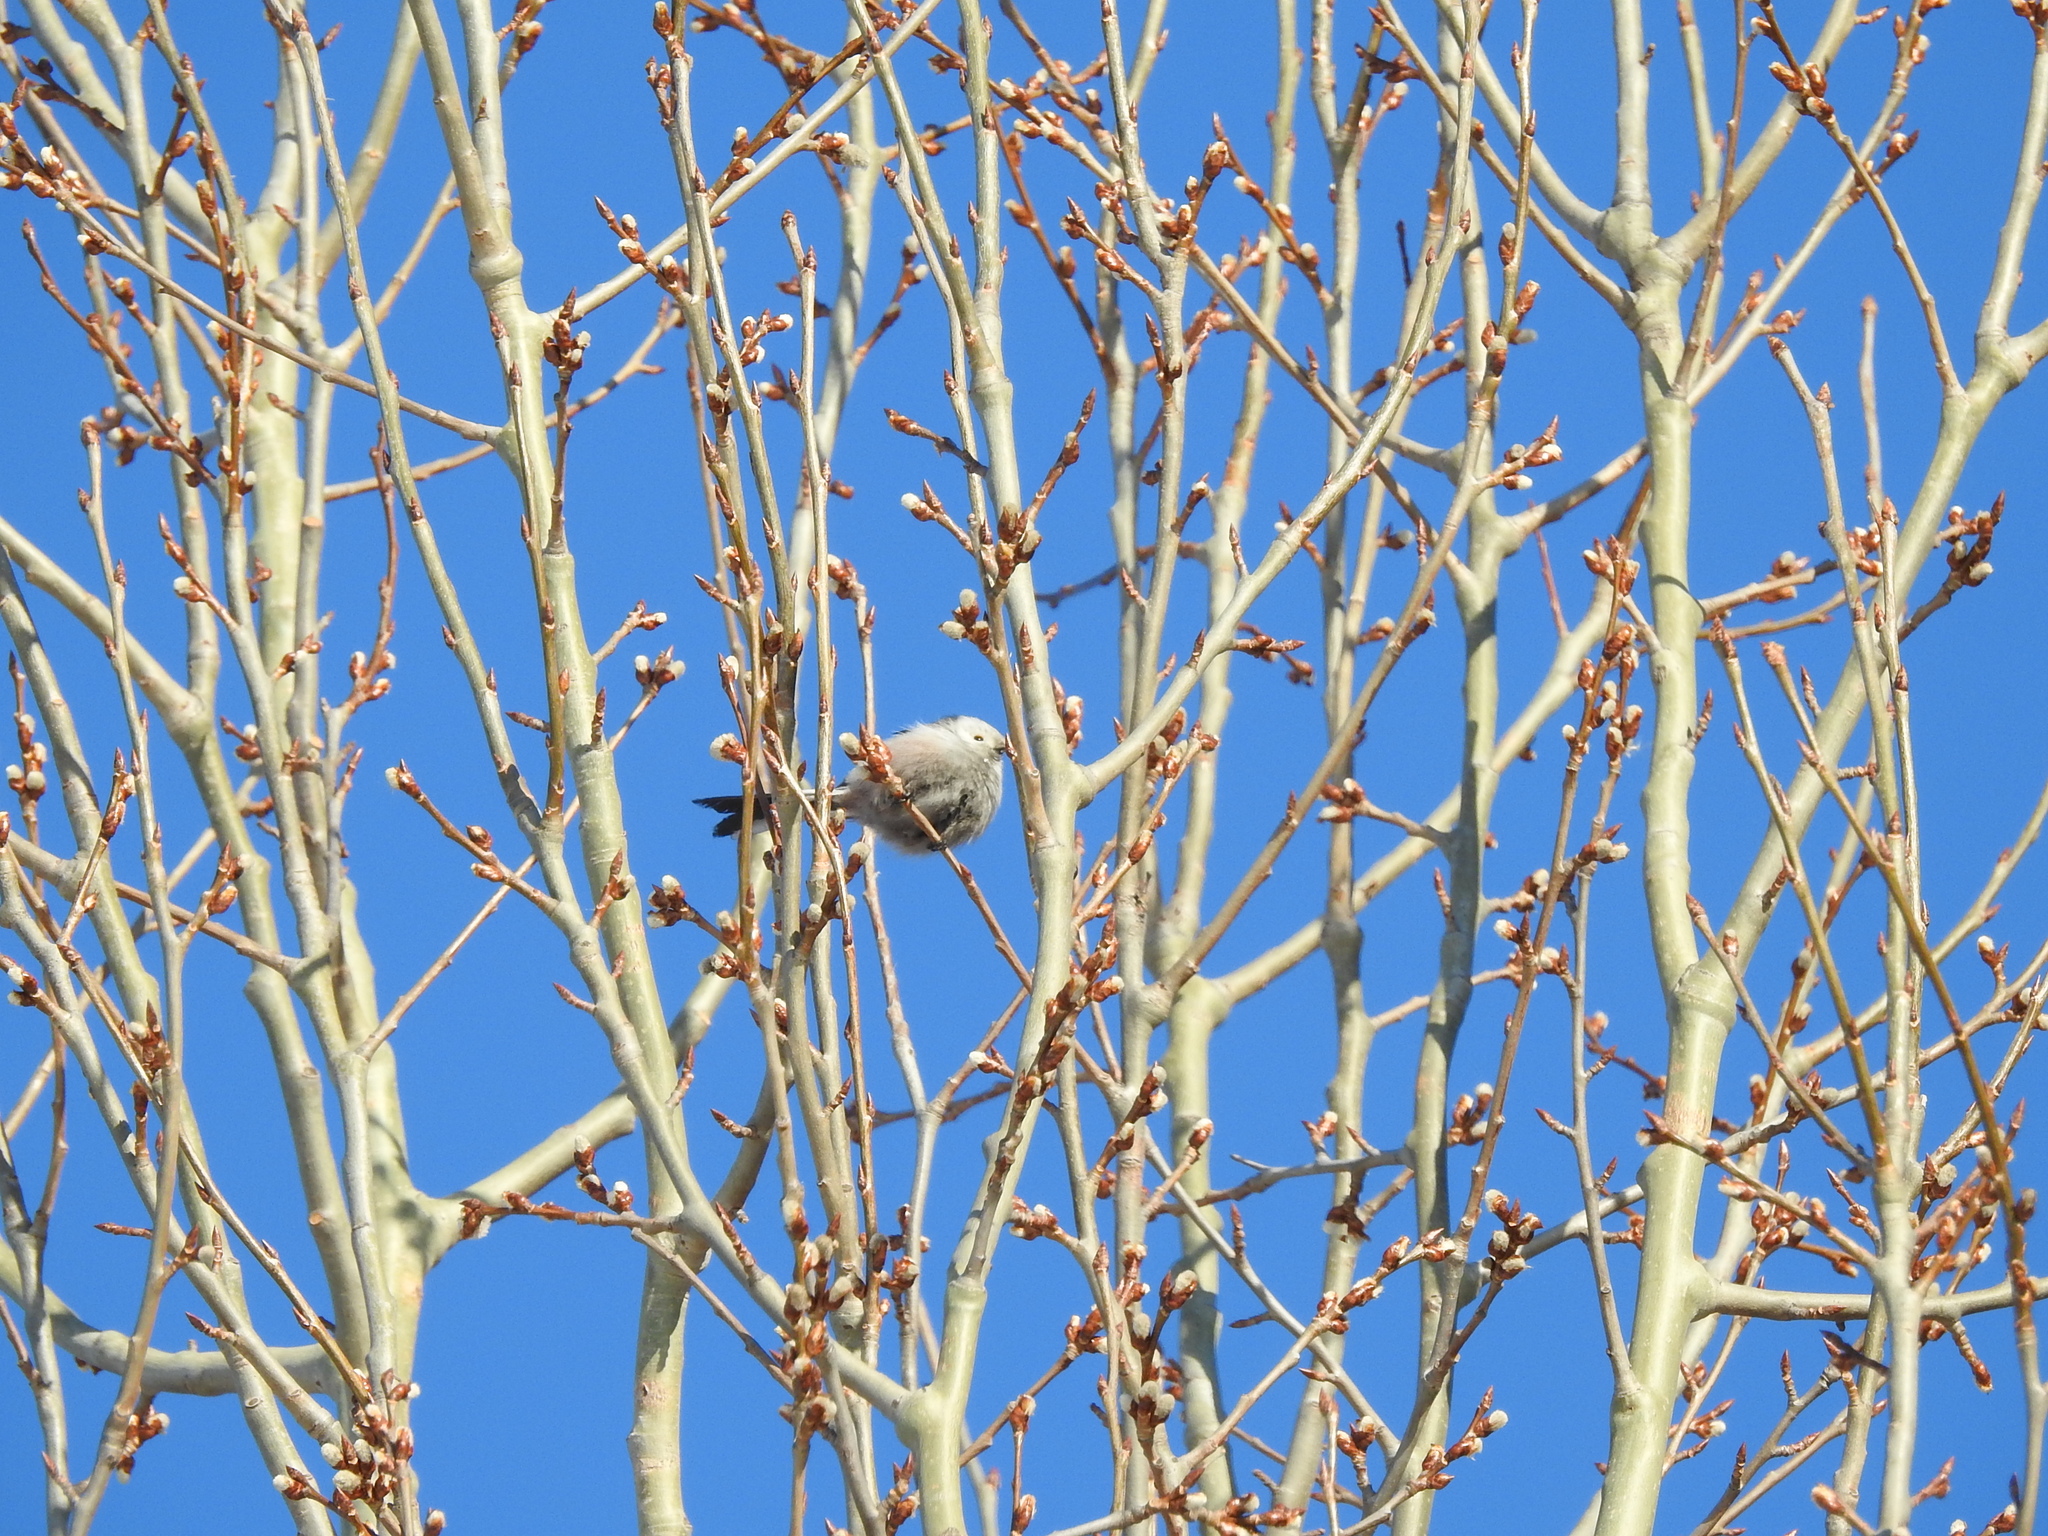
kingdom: Animalia
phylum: Chordata
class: Aves
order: Passeriformes
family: Aegithalidae
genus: Aegithalos
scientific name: Aegithalos caudatus
